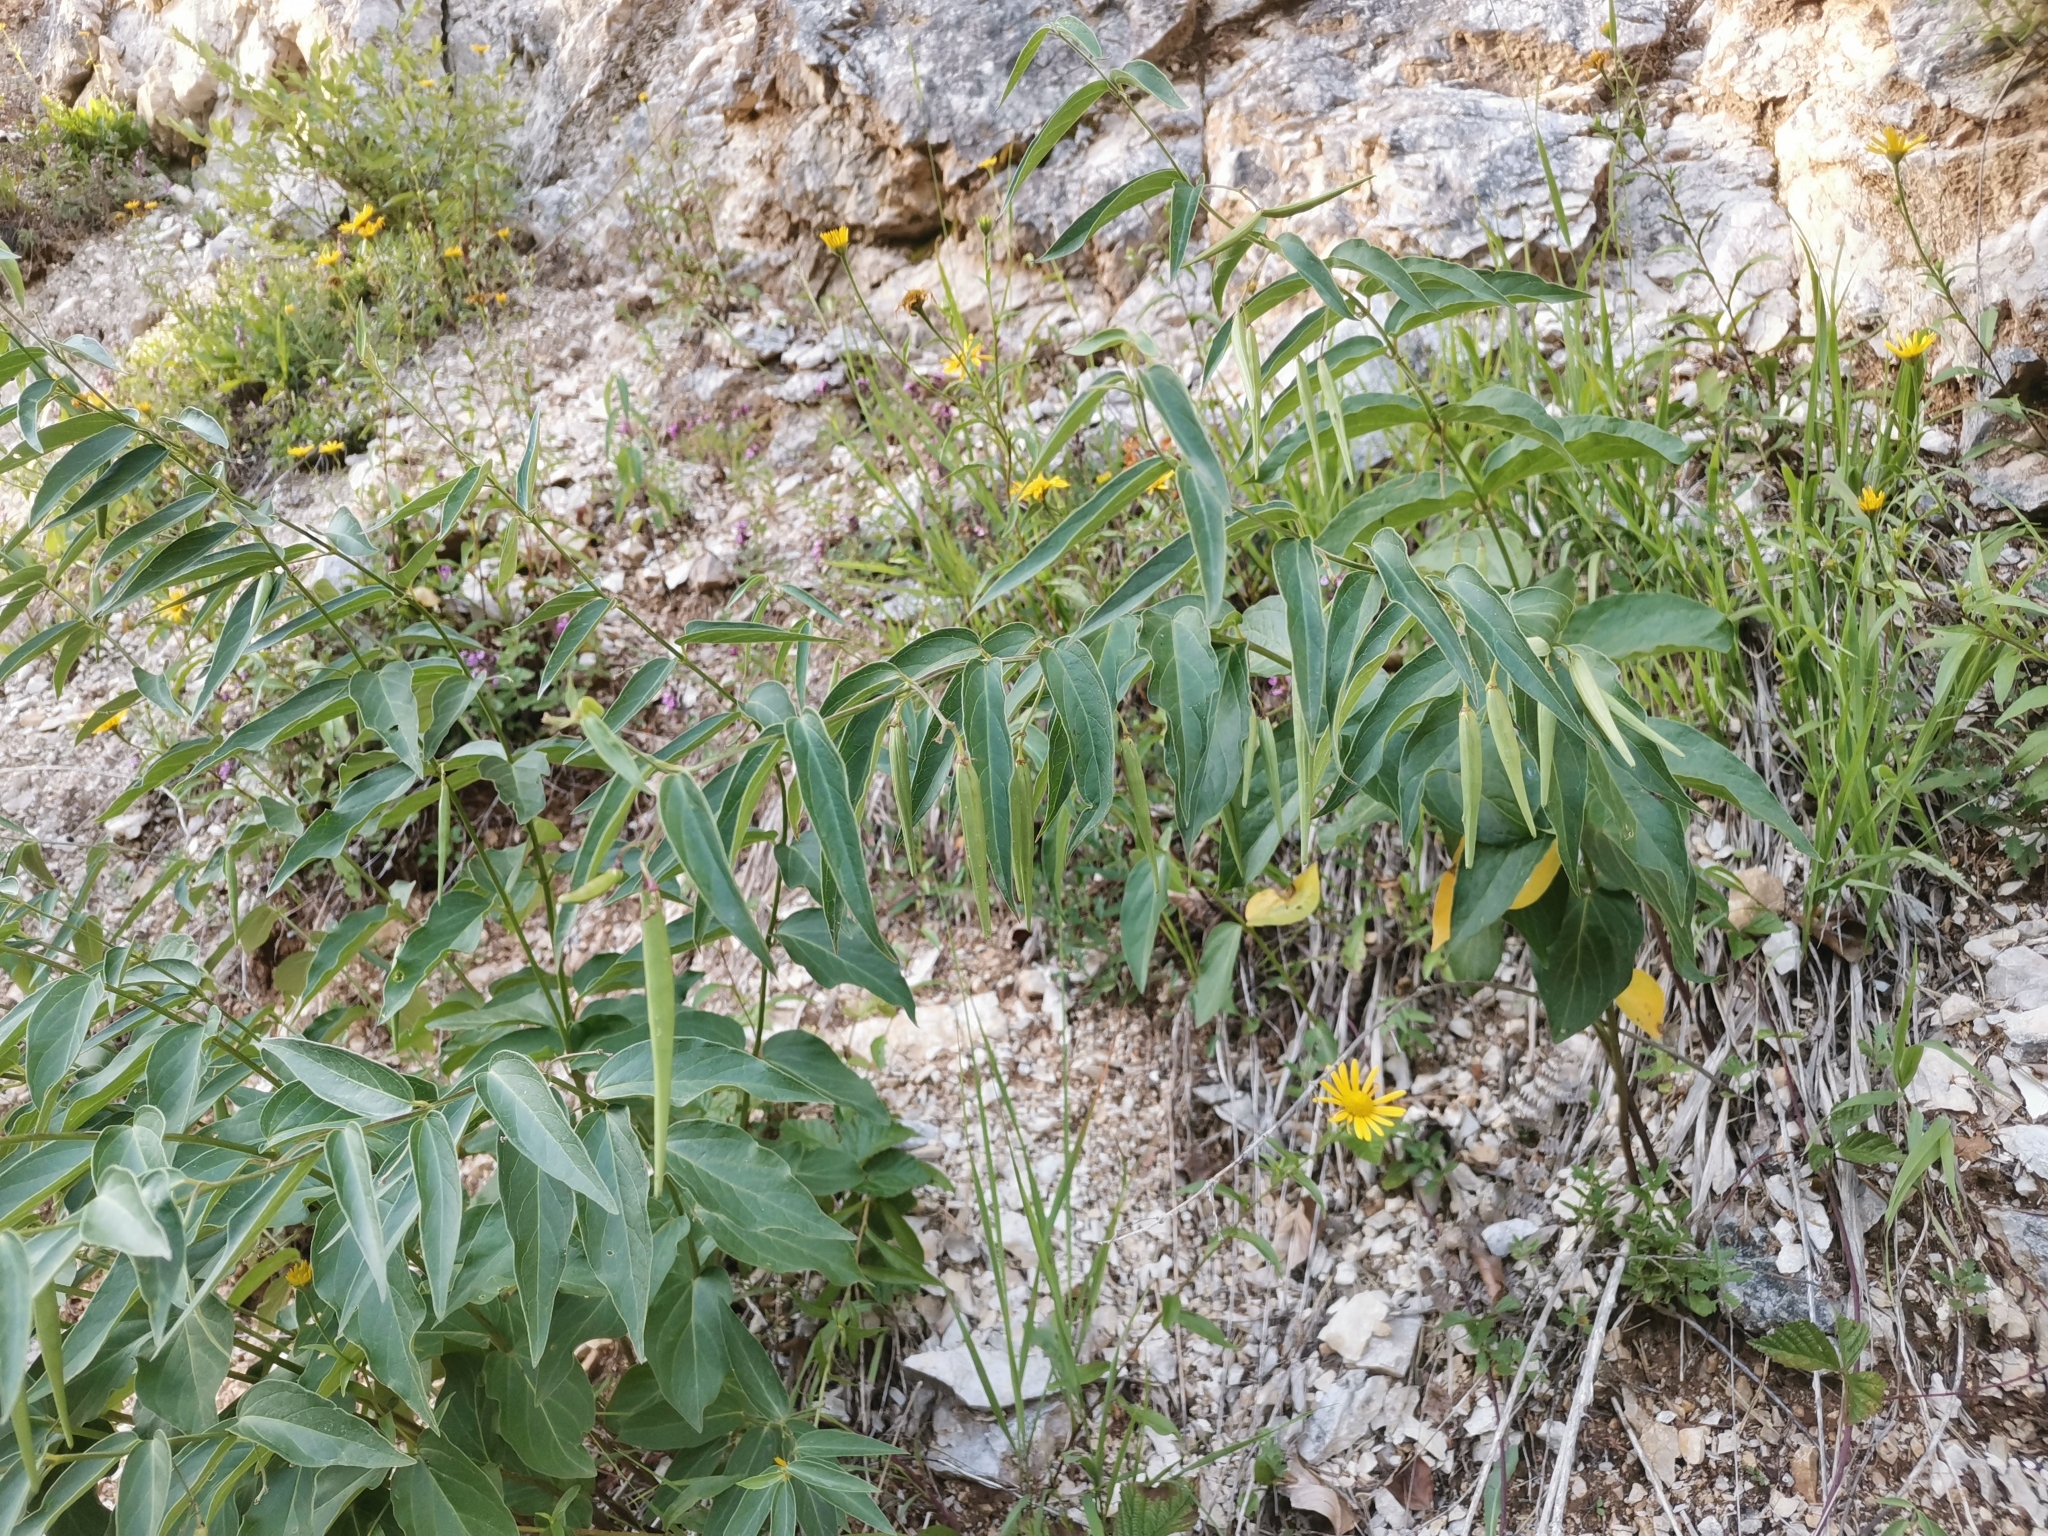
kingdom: Plantae
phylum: Tracheophyta
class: Magnoliopsida
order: Gentianales
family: Apocynaceae
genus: Vincetoxicum
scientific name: Vincetoxicum hirundinaria
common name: White swallowwort
